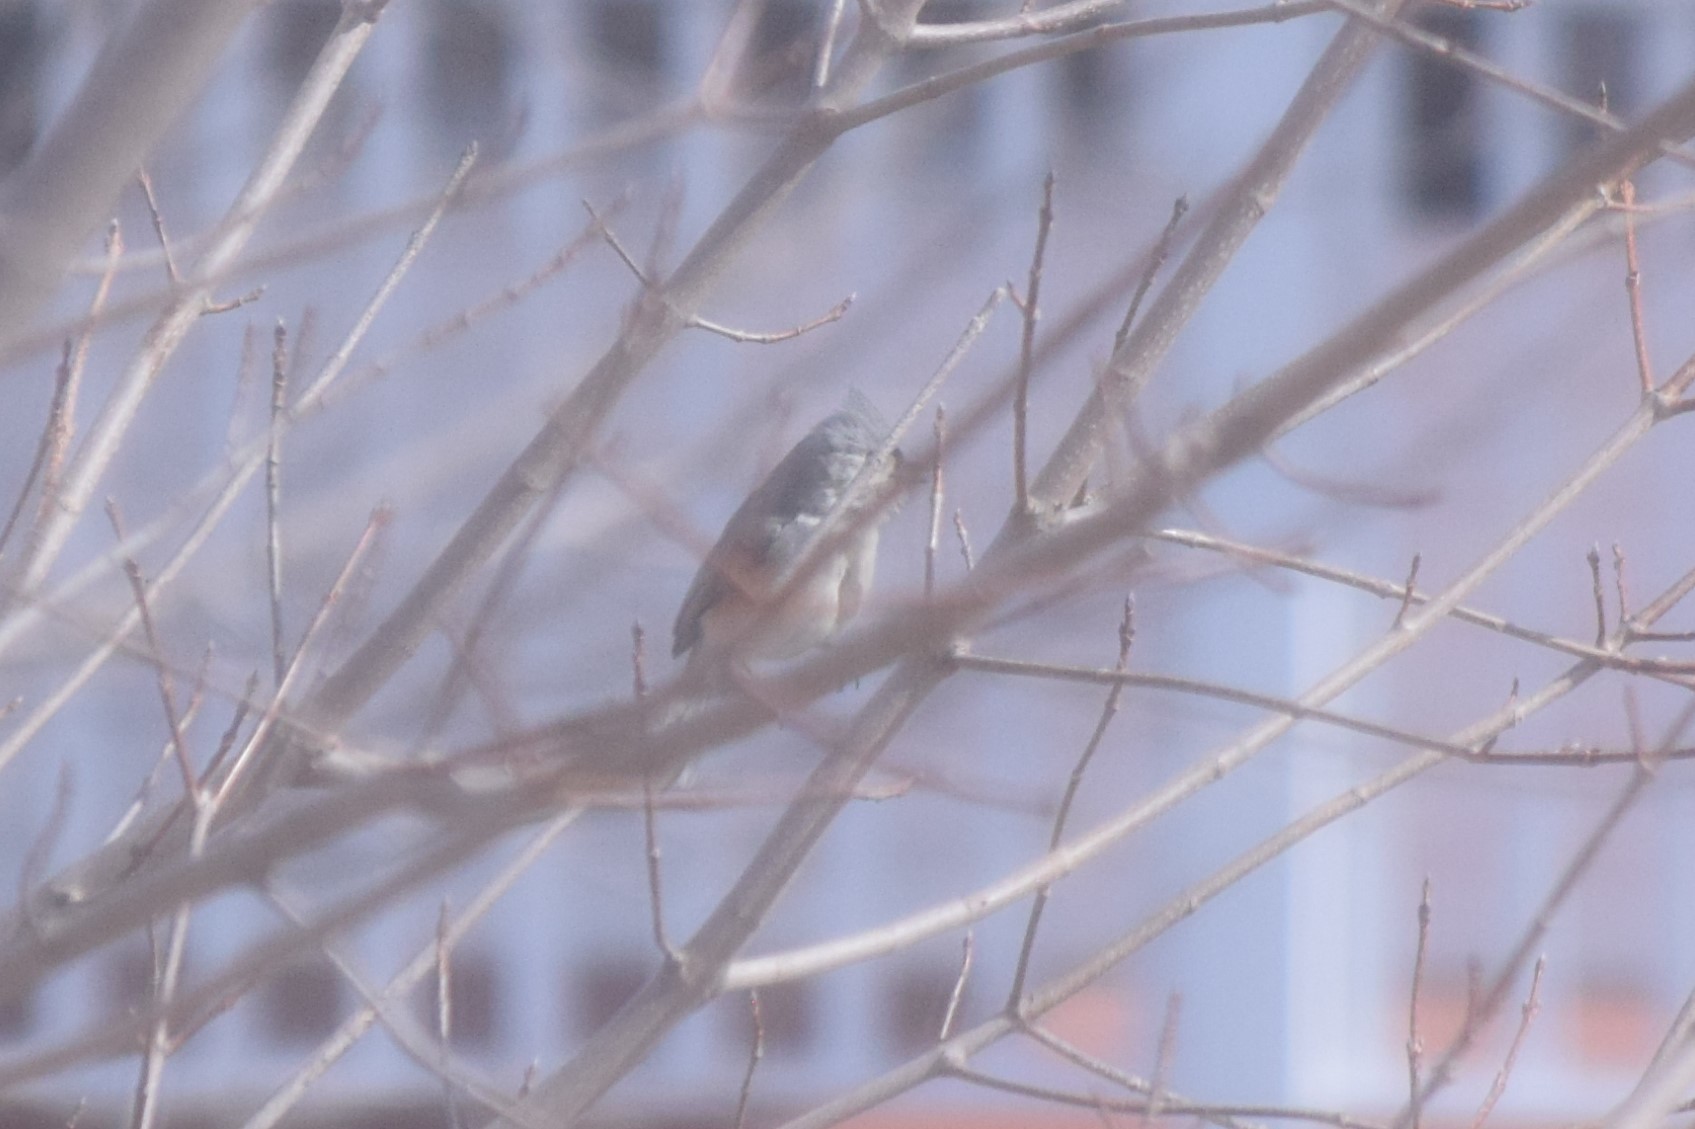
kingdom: Animalia
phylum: Chordata
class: Aves
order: Passeriformes
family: Paridae
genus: Baeolophus
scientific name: Baeolophus bicolor
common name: Tufted titmouse
